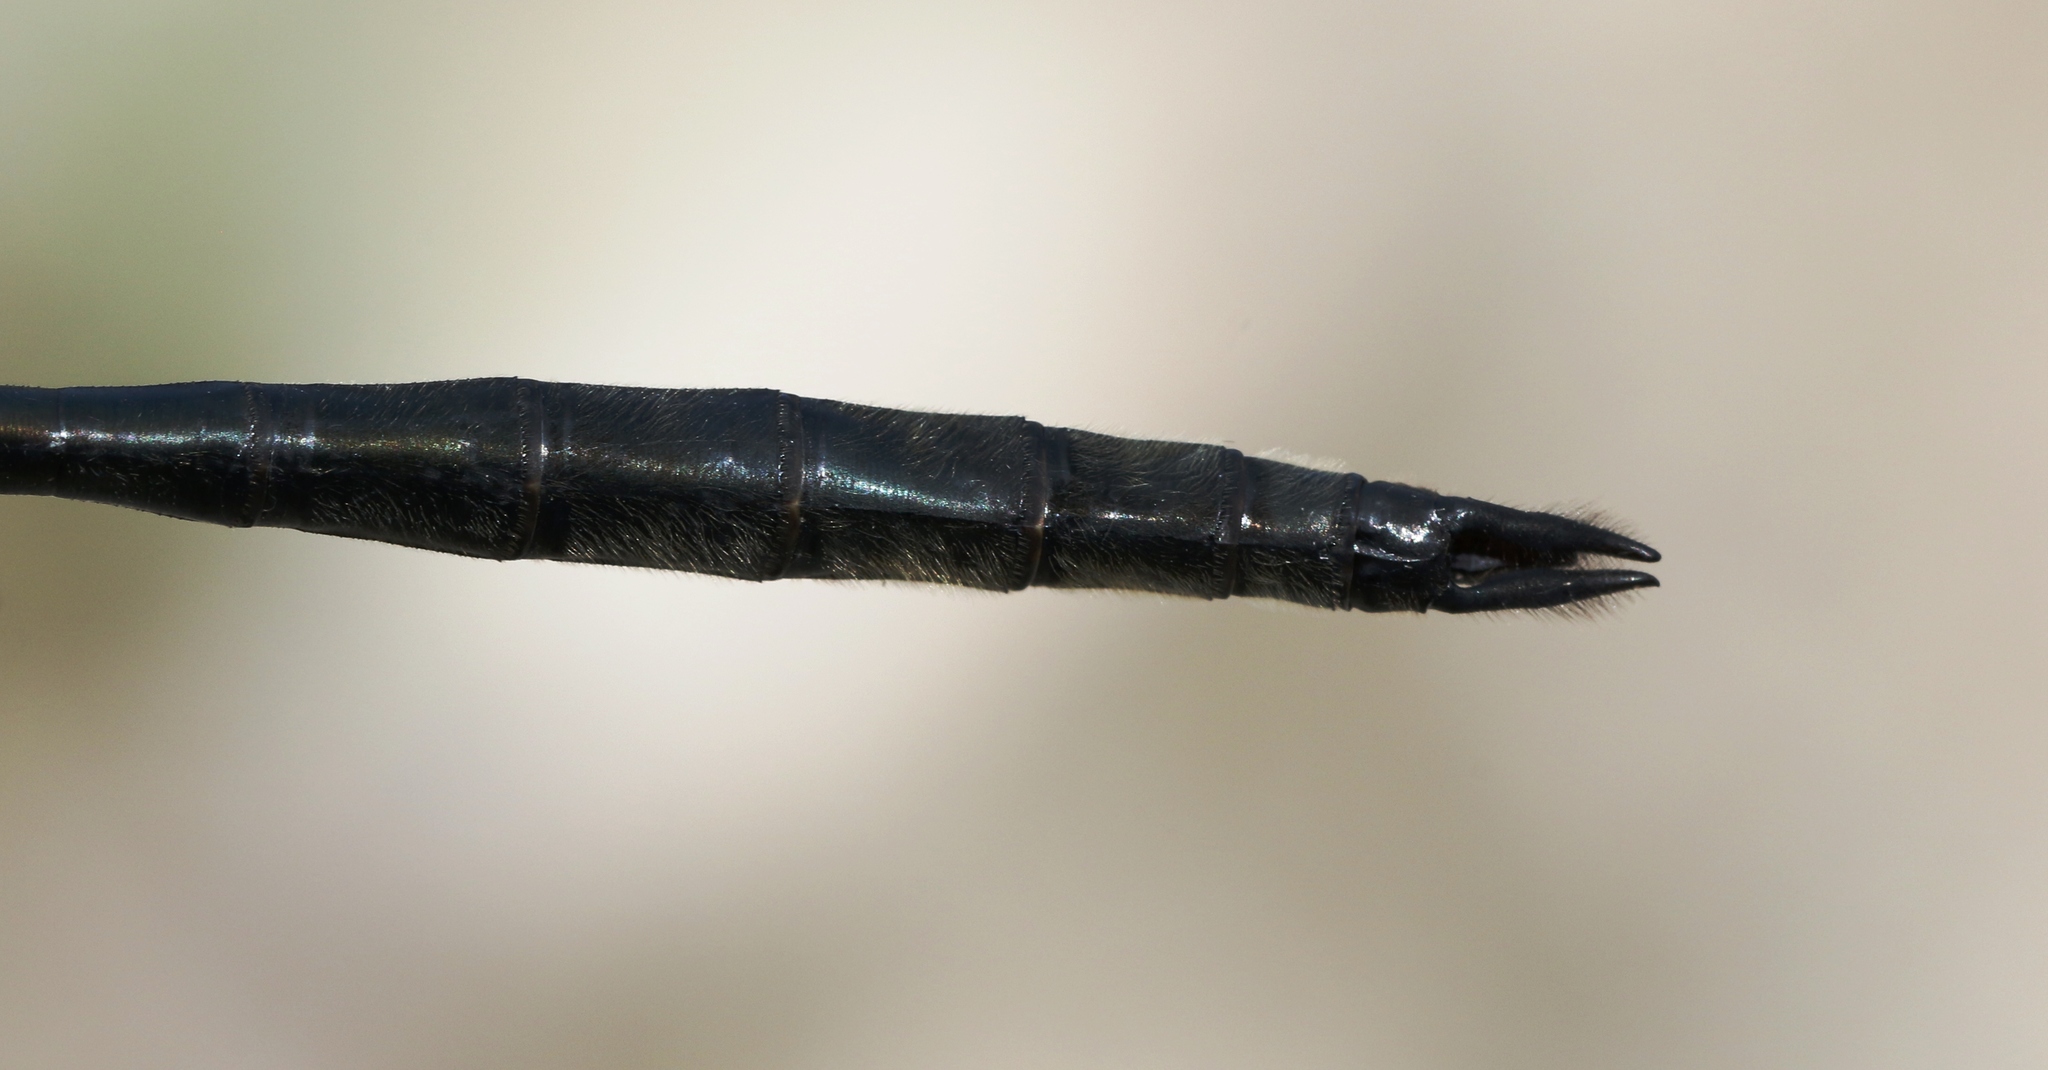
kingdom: Animalia
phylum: Arthropoda
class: Insecta
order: Odonata
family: Corduliidae
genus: Somatochlora
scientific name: Somatochlora elongata
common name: Ski-tipped emerald
